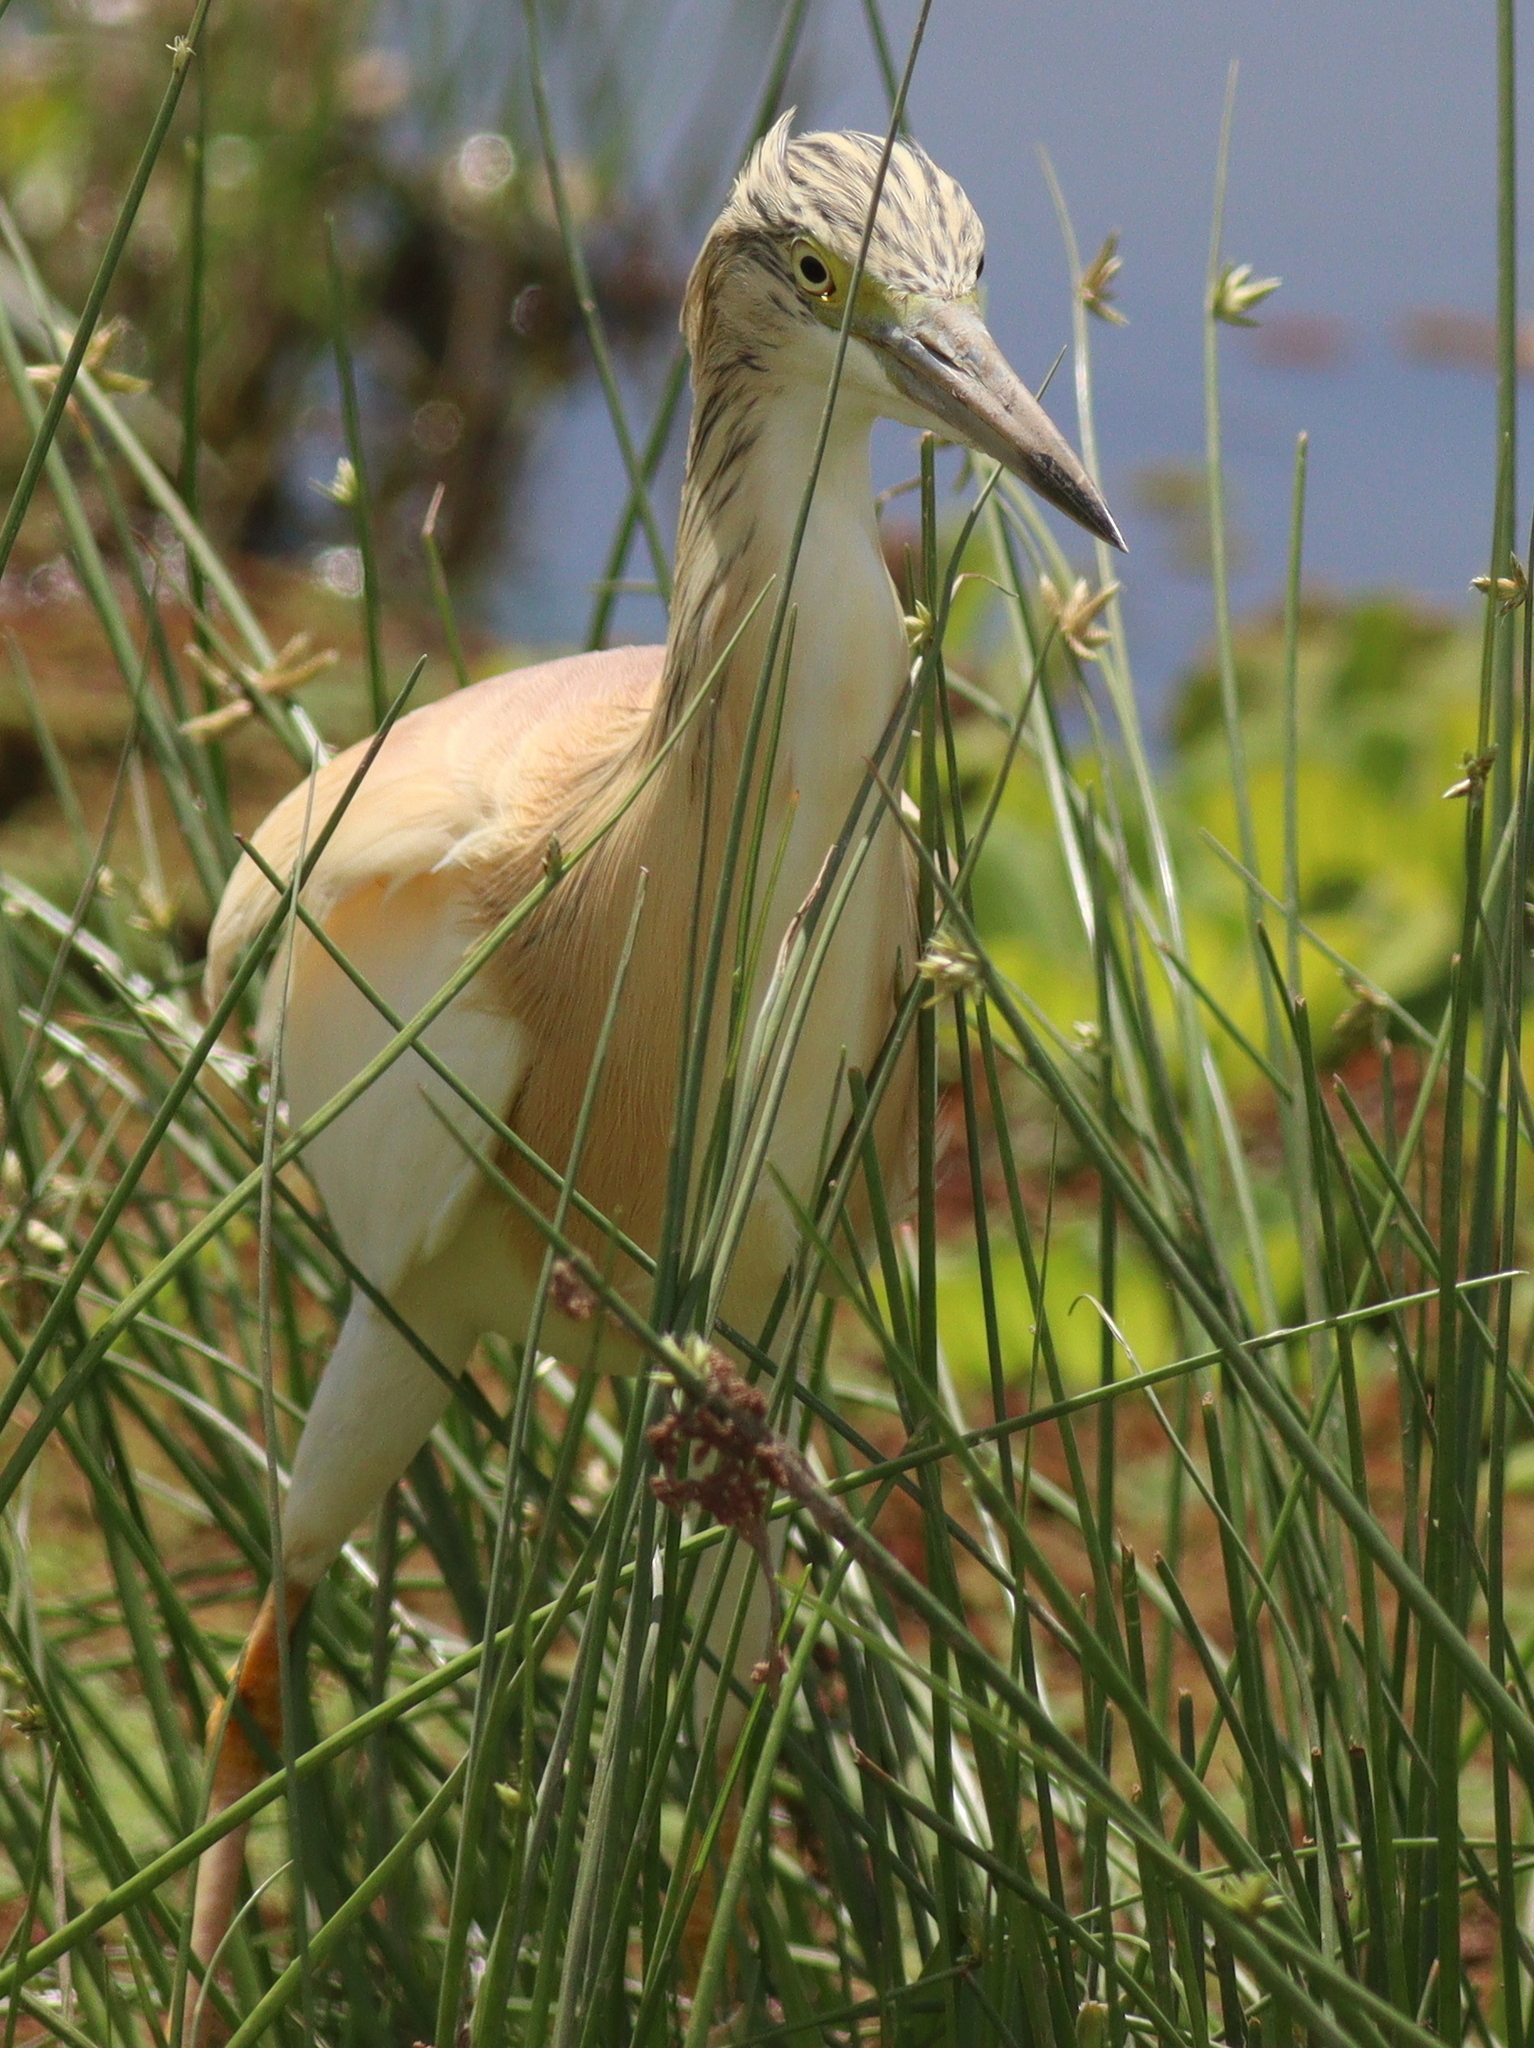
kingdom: Animalia
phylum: Chordata
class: Aves
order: Pelecaniformes
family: Ardeidae
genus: Ardeola
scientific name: Ardeola ralloides
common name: Squacco heron
